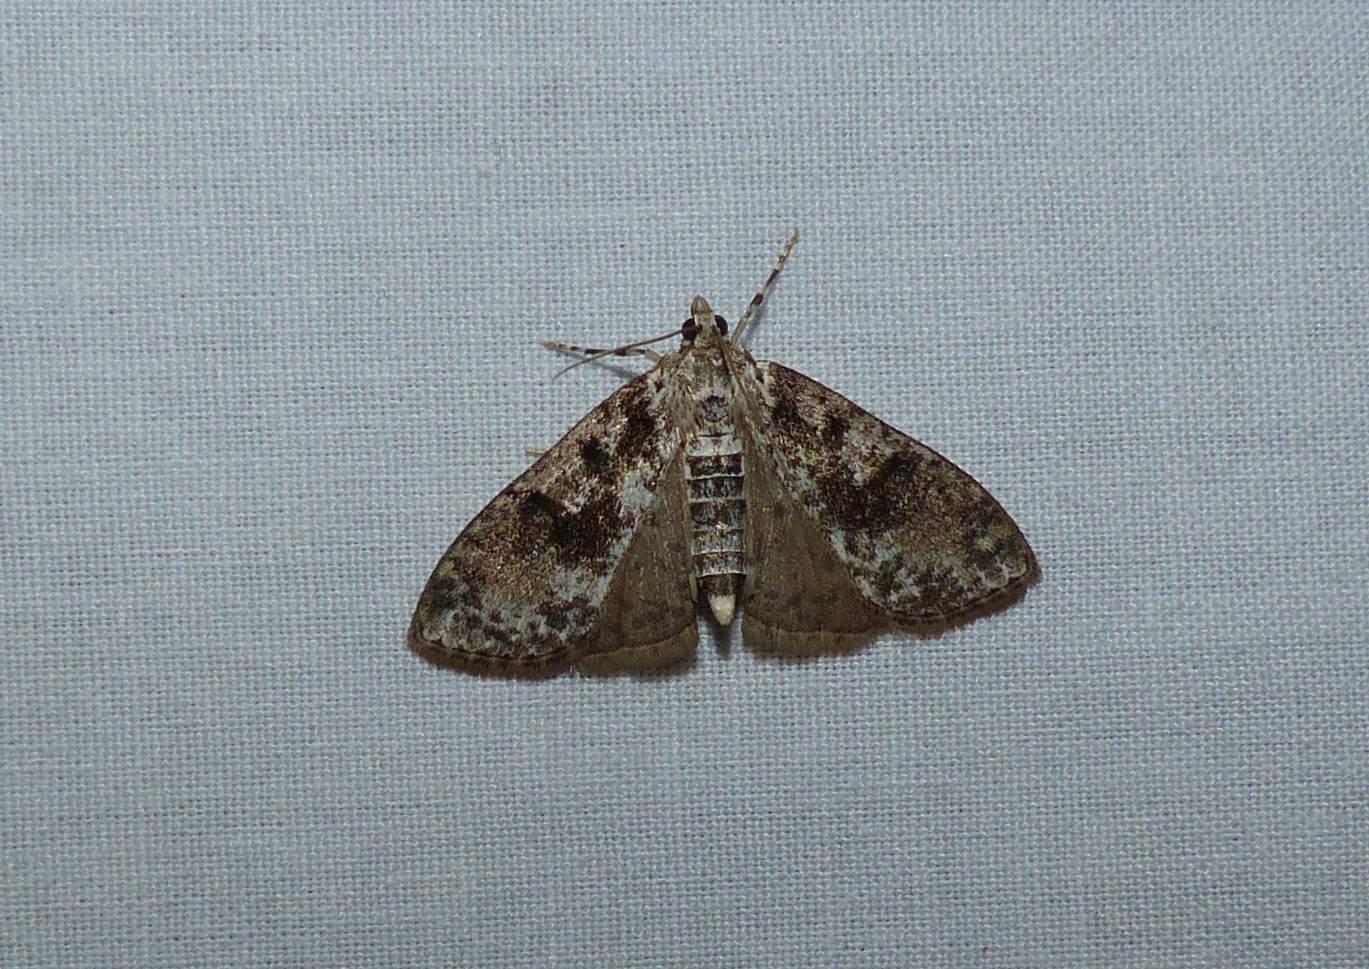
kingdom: Animalia
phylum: Arthropoda
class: Insecta
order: Lepidoptera
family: Crambidae
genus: Palpita
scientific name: Palpita magniferalis
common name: Splendid palpita moth
